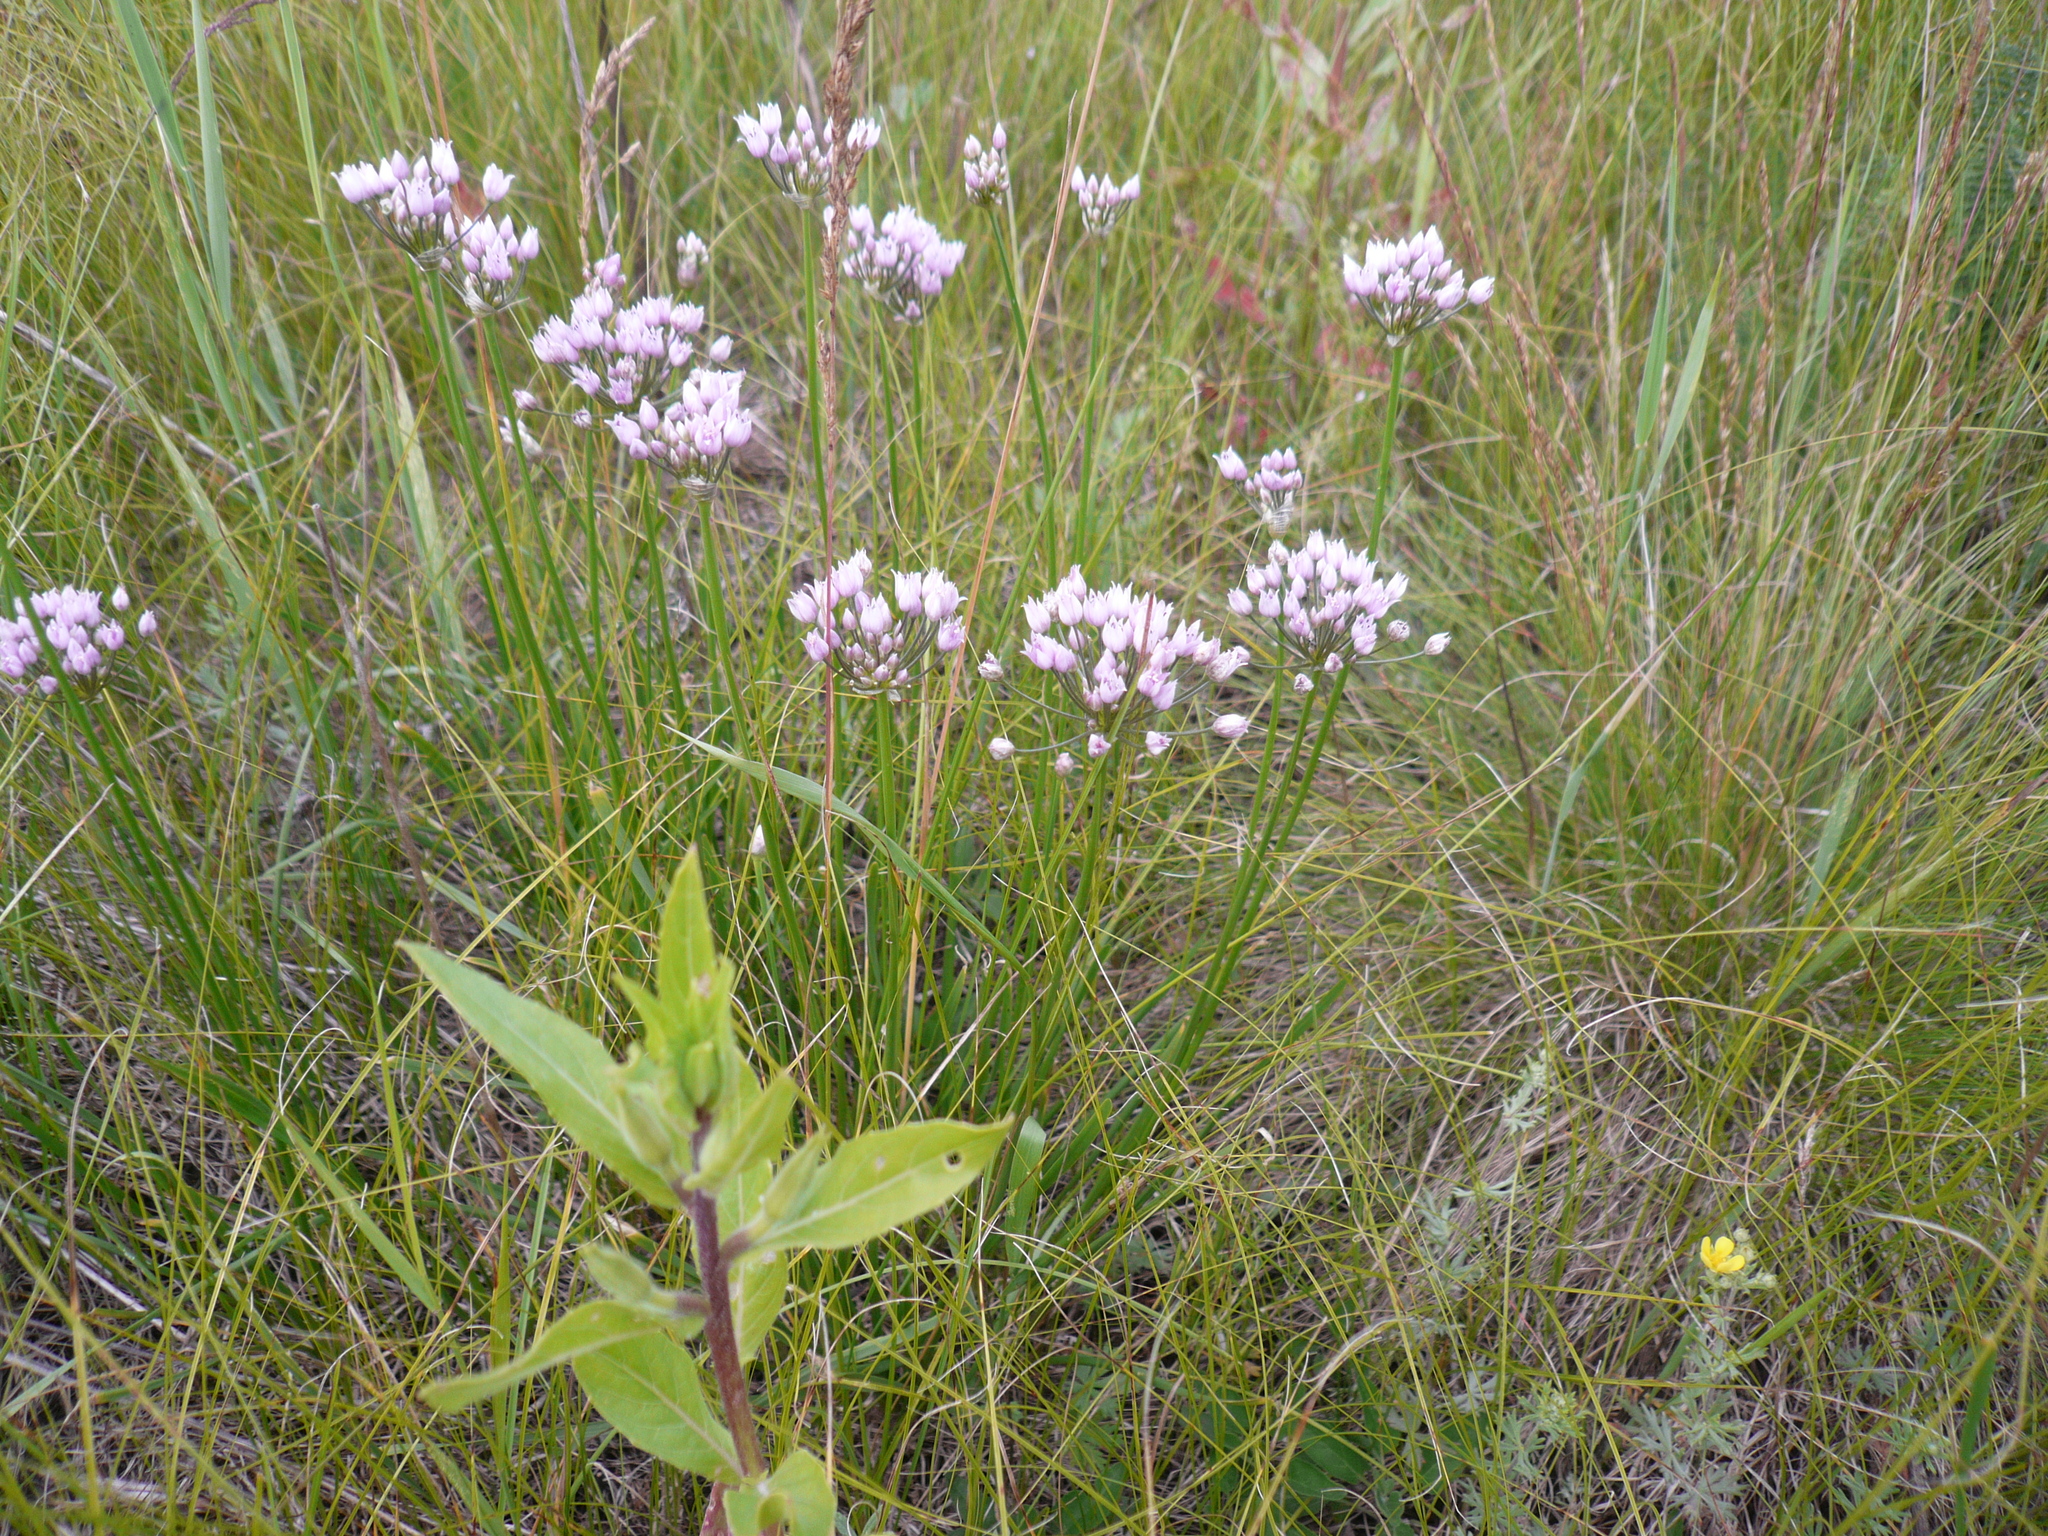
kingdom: Plantae
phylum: Tracheophyta
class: Liliopsida
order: Asparagales
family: Amaryllidaceae
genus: Allium
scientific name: Allium angulosum
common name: Mouse garlic
